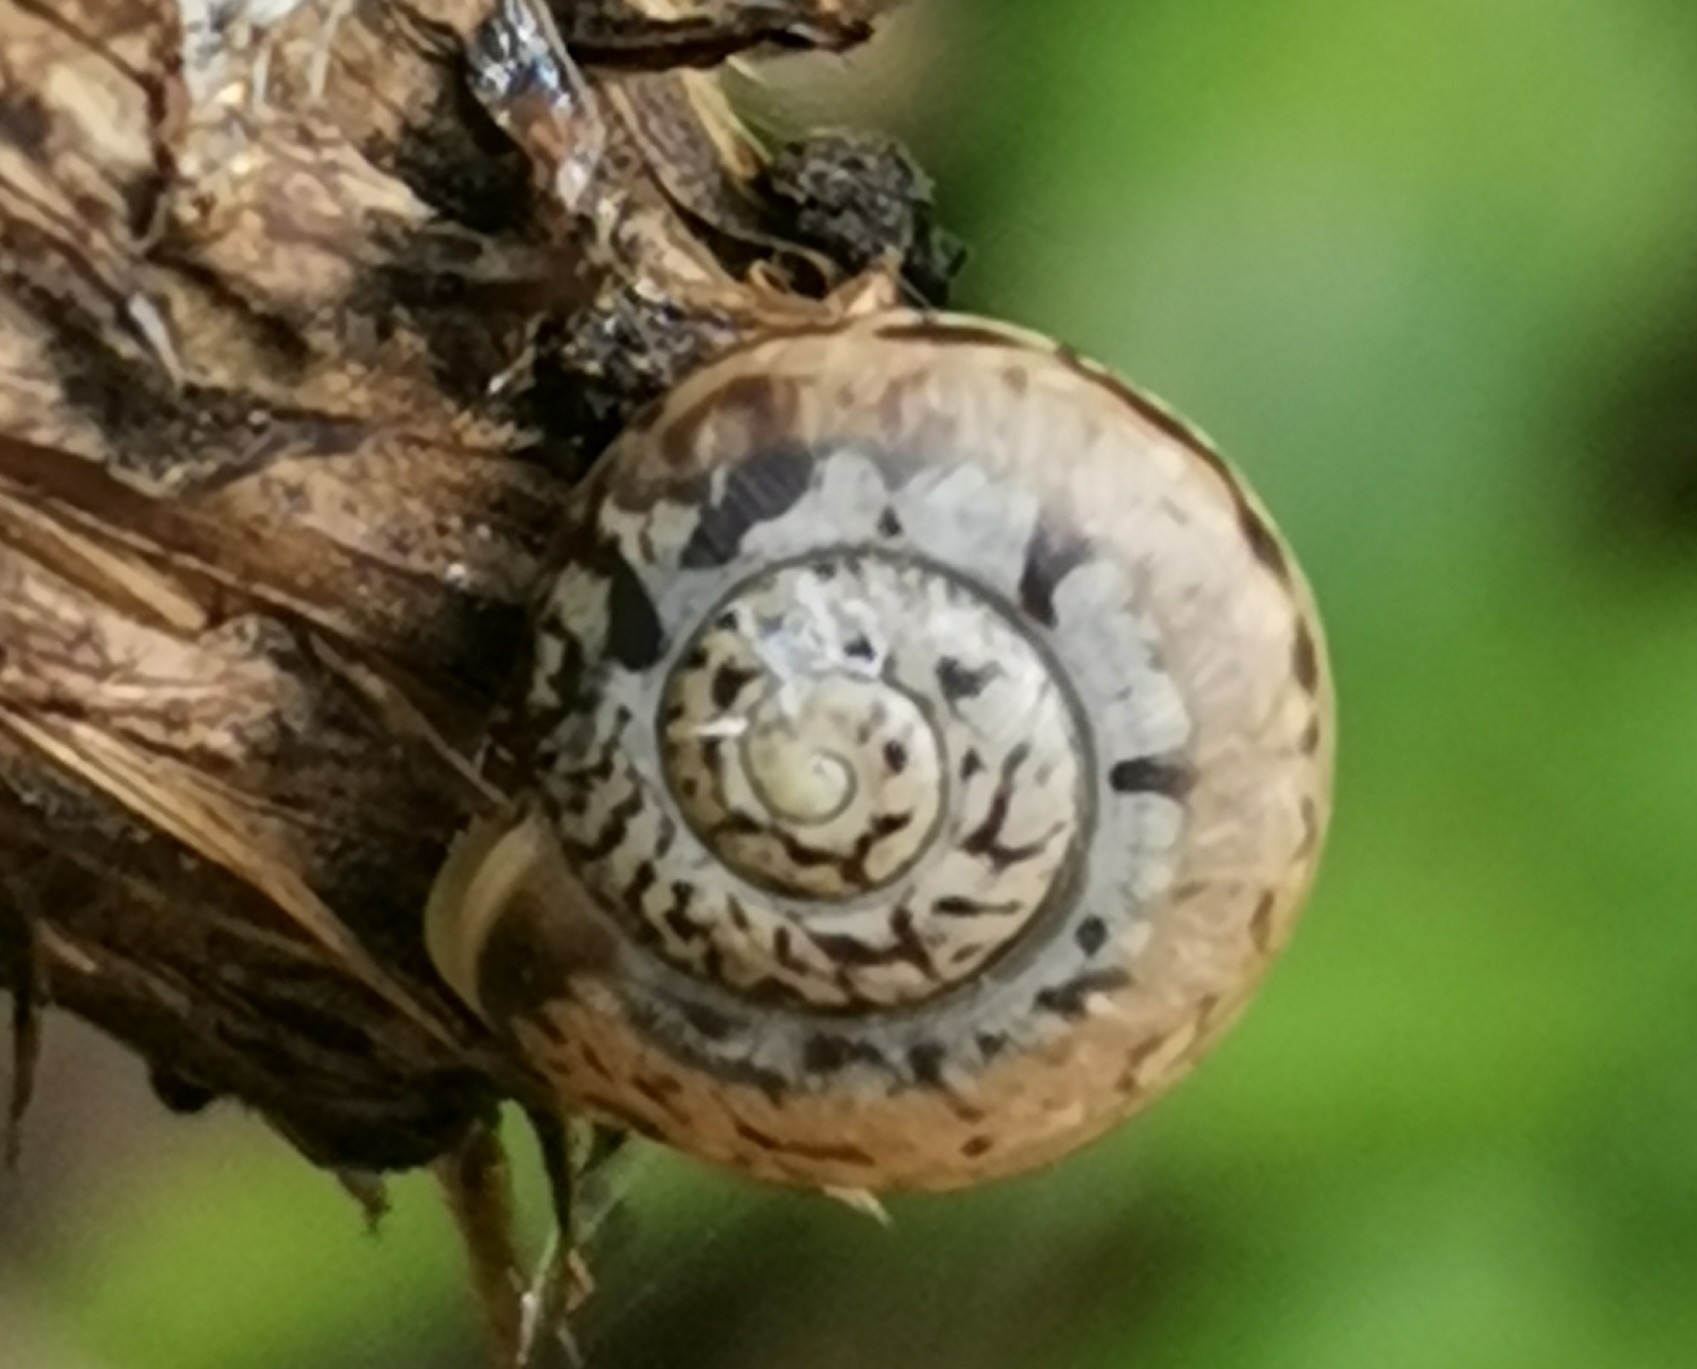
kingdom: Animalia
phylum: Mollusca
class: Gastropoda
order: Stylommatophora
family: Camaenidae
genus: Fruticicola
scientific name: Fruticicola fruticum
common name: Bush snail
